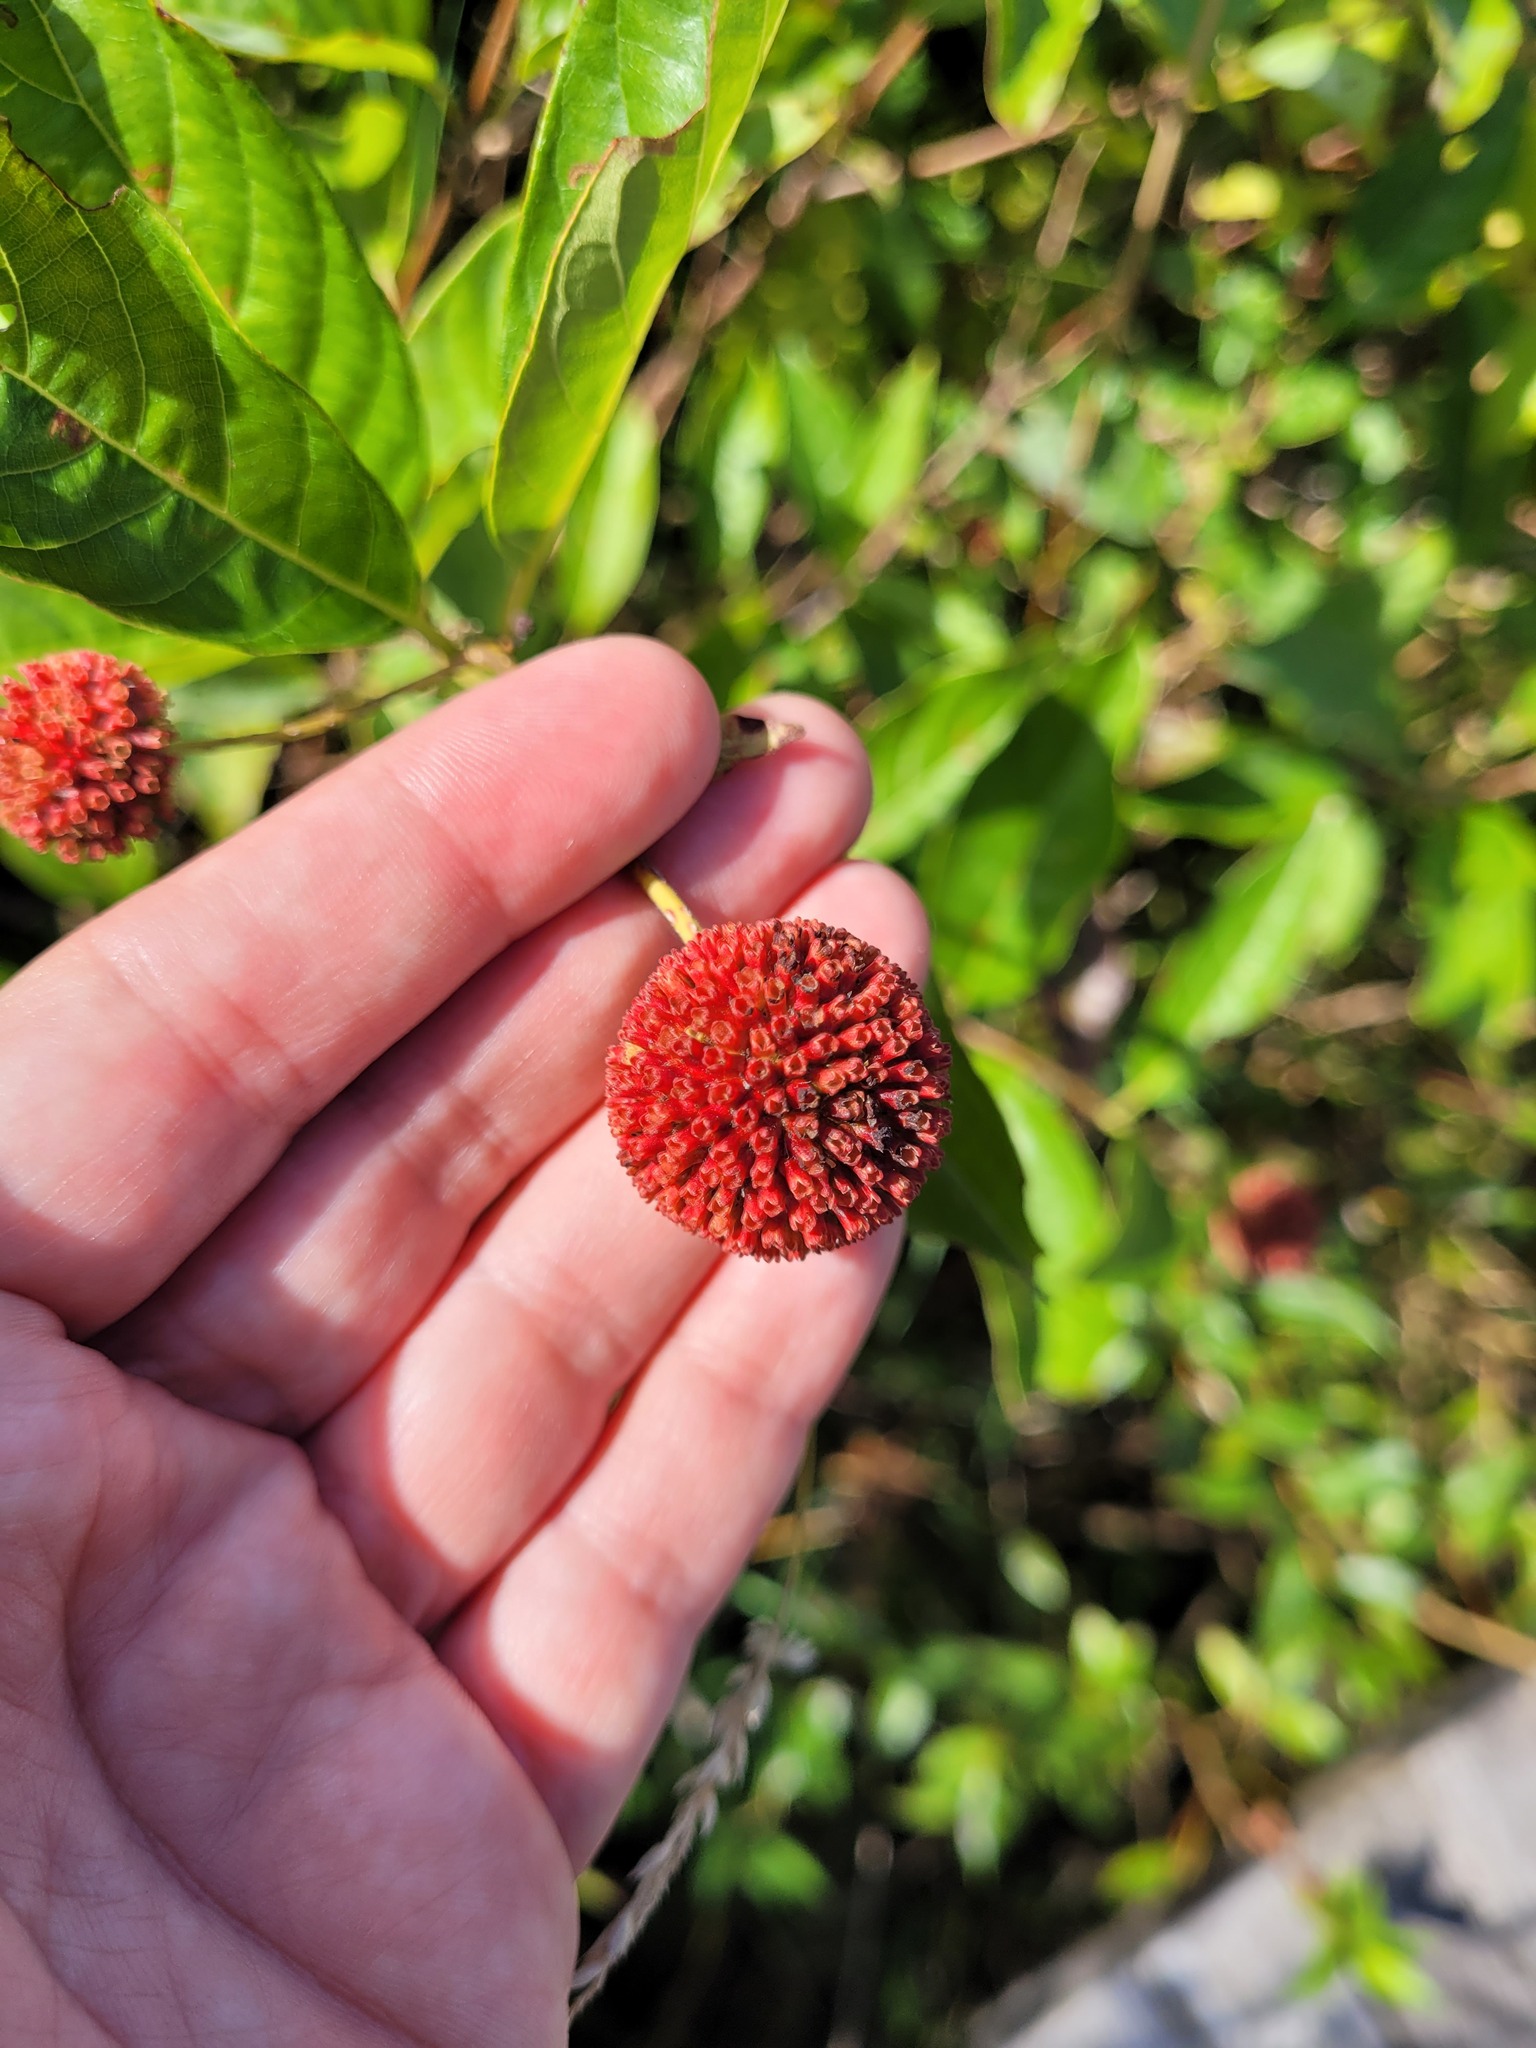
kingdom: Plantae
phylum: Tracheophyta
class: Magnoliopsida
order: Gentianales
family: Rubiaceae
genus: Cephalanthus
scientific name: Cephalanthus occidentalis
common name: Button-willow
